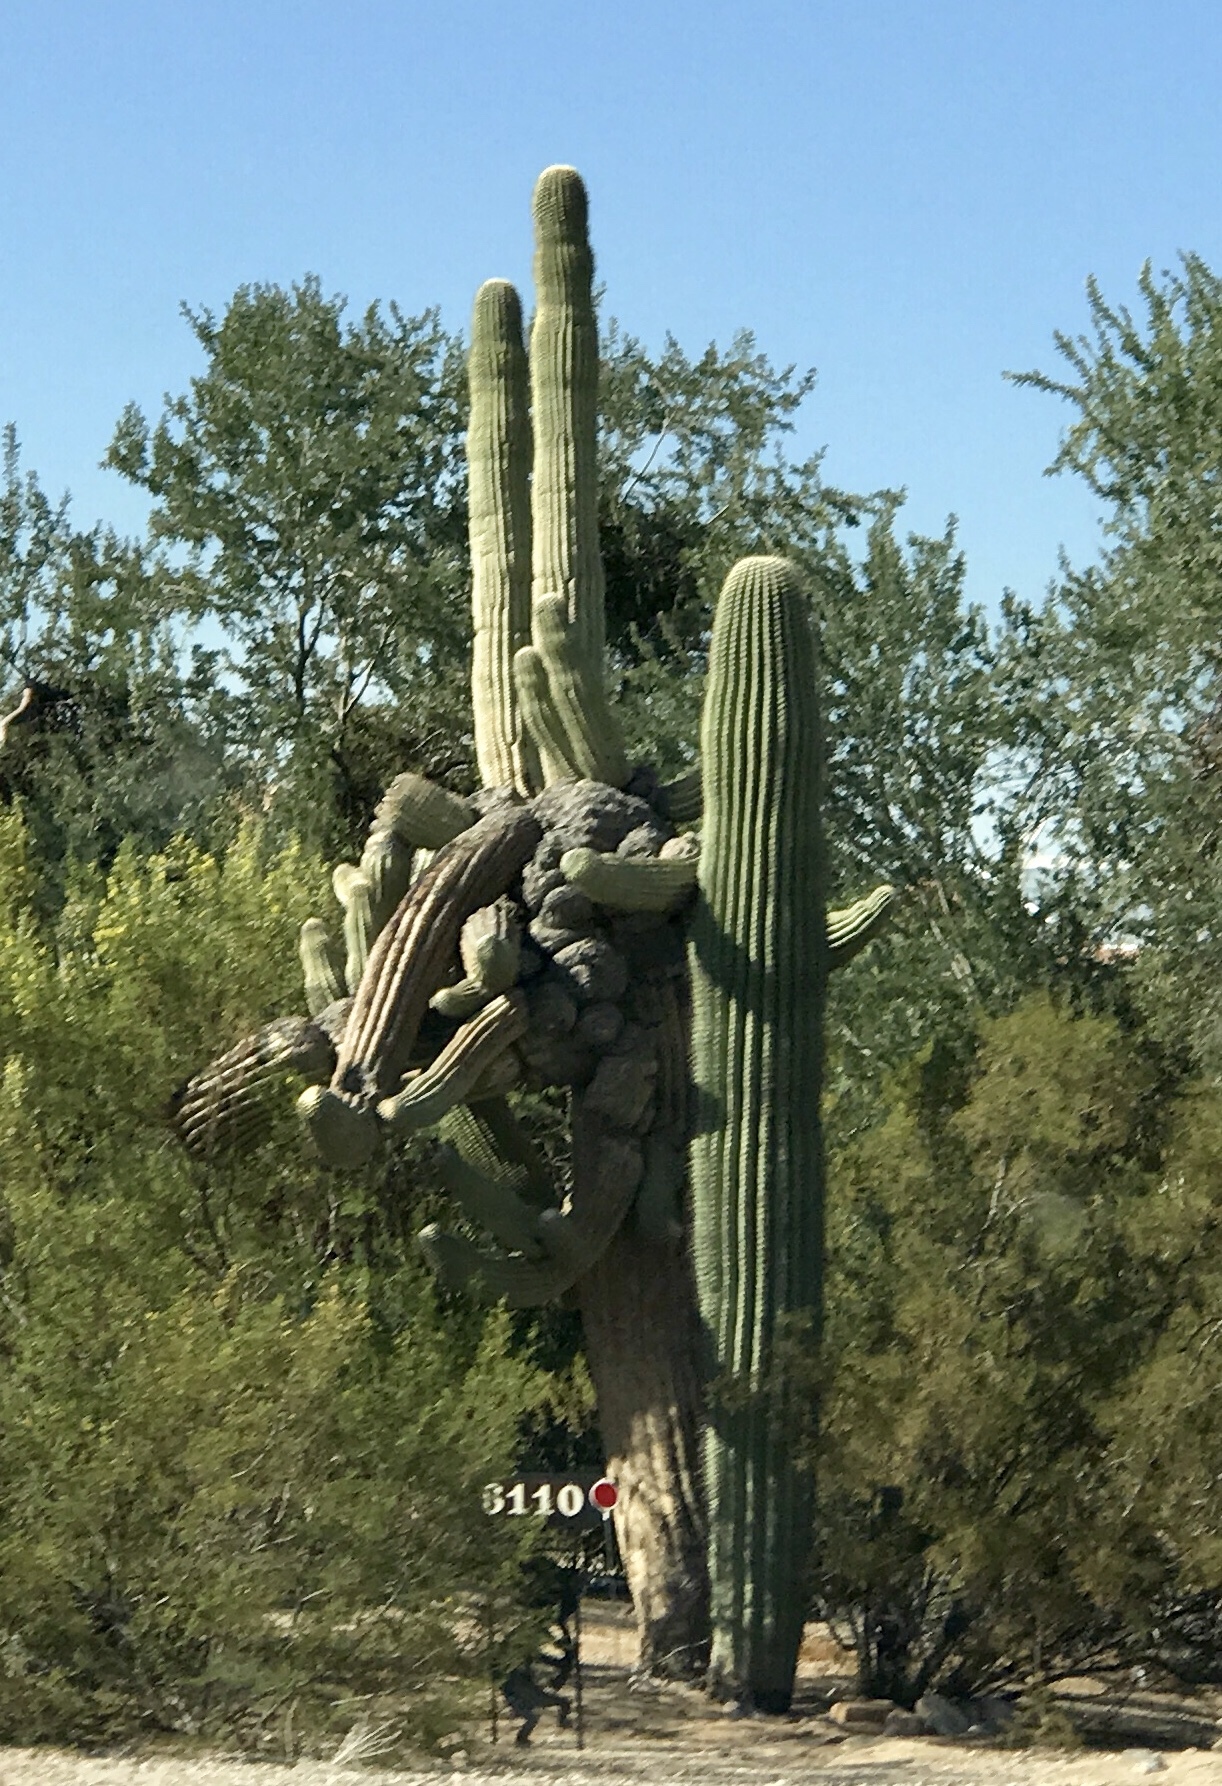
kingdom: Plantae
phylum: Tracheophyta
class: Magnoliopsida
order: Caryophyllales
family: Cactaceae
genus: Carnegiea
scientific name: Carnegiea gigantea
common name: Saguaro
